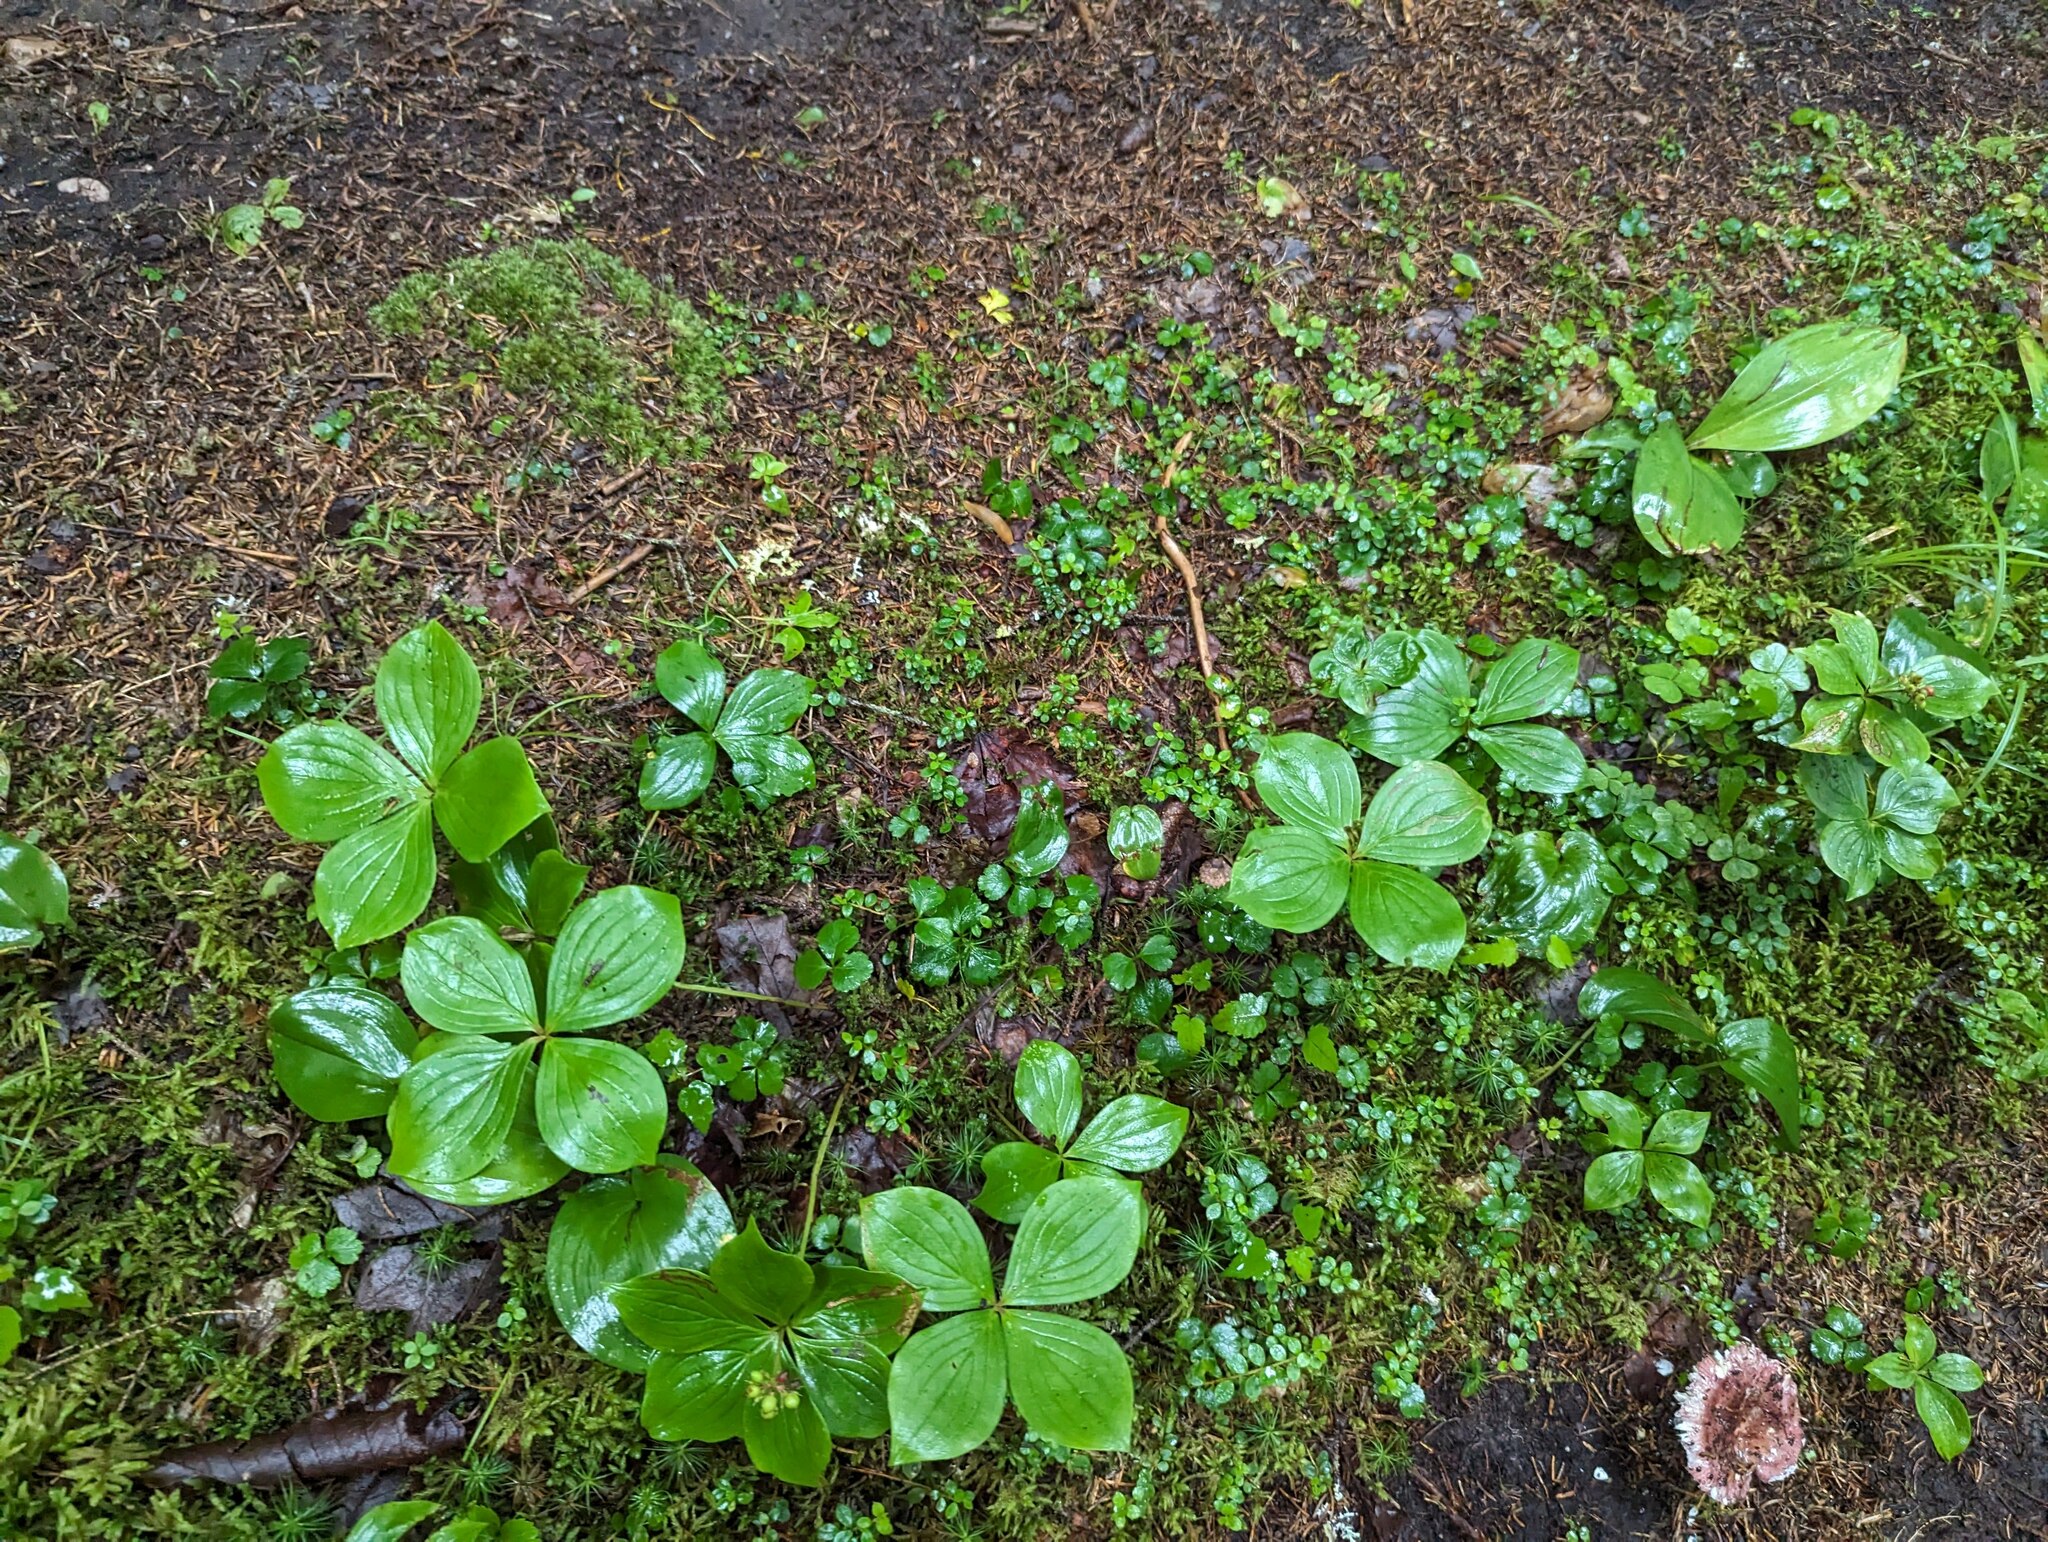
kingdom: Plantae
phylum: Tracheophyta
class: Magnoliopsida
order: Cornales
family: Cornaceae
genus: Cornus
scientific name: Cornus canadensis
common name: Creeping dogwood
